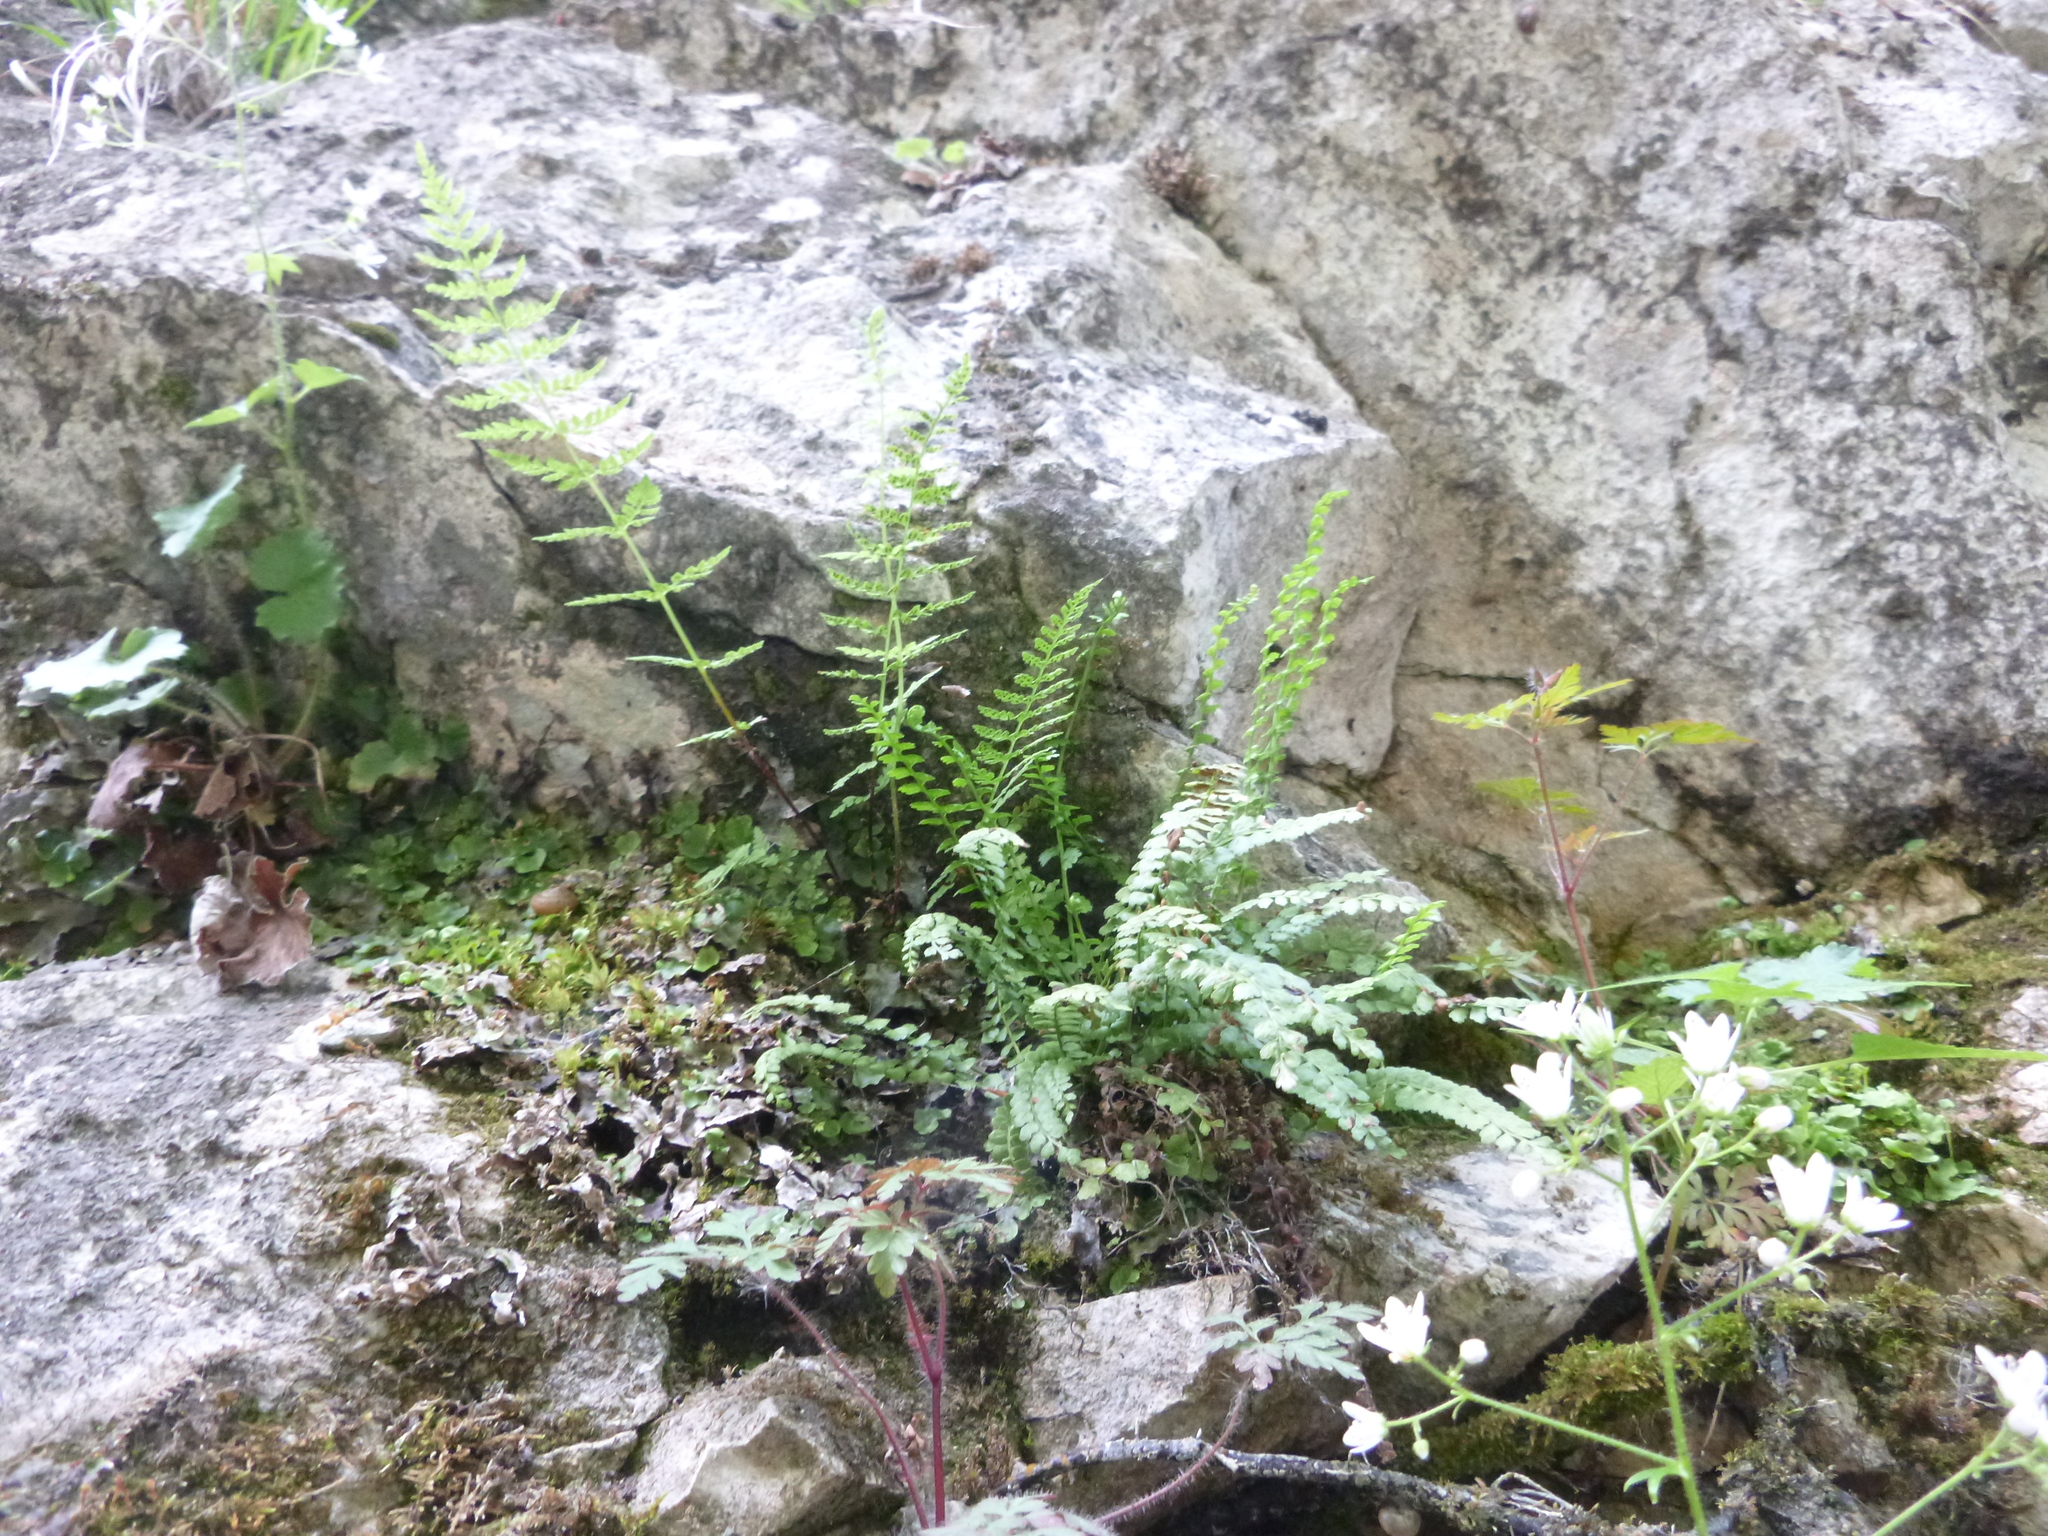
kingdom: Plantae
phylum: Tracheophyta
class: Polypodiopsida
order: Polypodiales
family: Cystopteridaceae
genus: Cystopteris
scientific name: Cystopteris fragilis
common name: Brittle bladder fern
